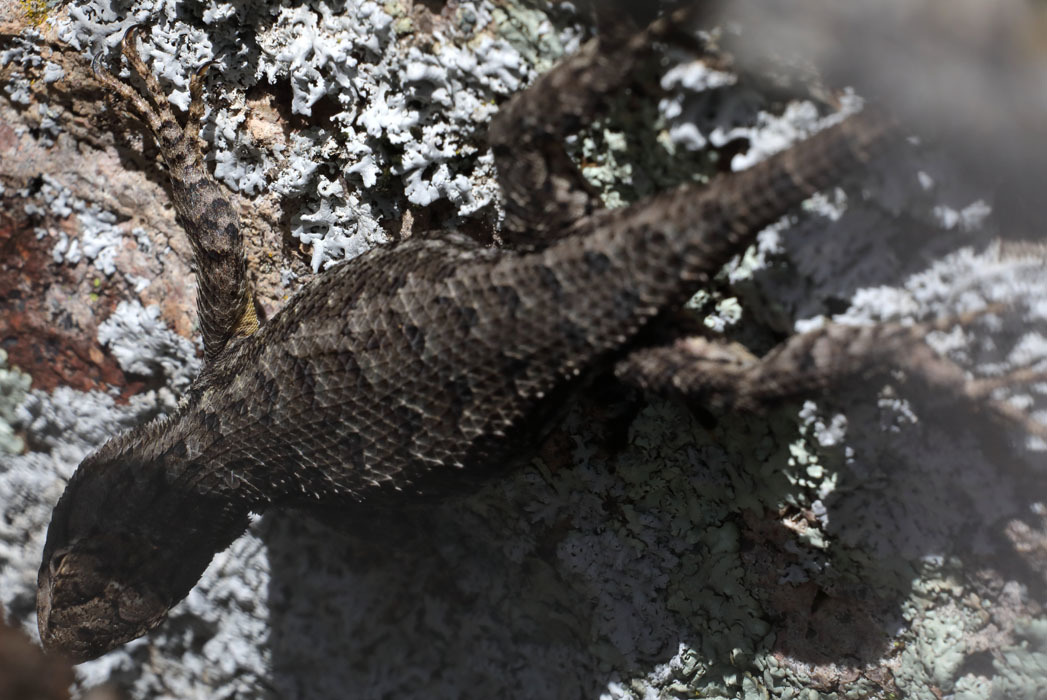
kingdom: Animalia
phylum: Chordata
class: Squamata
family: Phrynosomatidae
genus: Sceloporus
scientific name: Sceloporus occidentalis
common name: Western fence lizard
